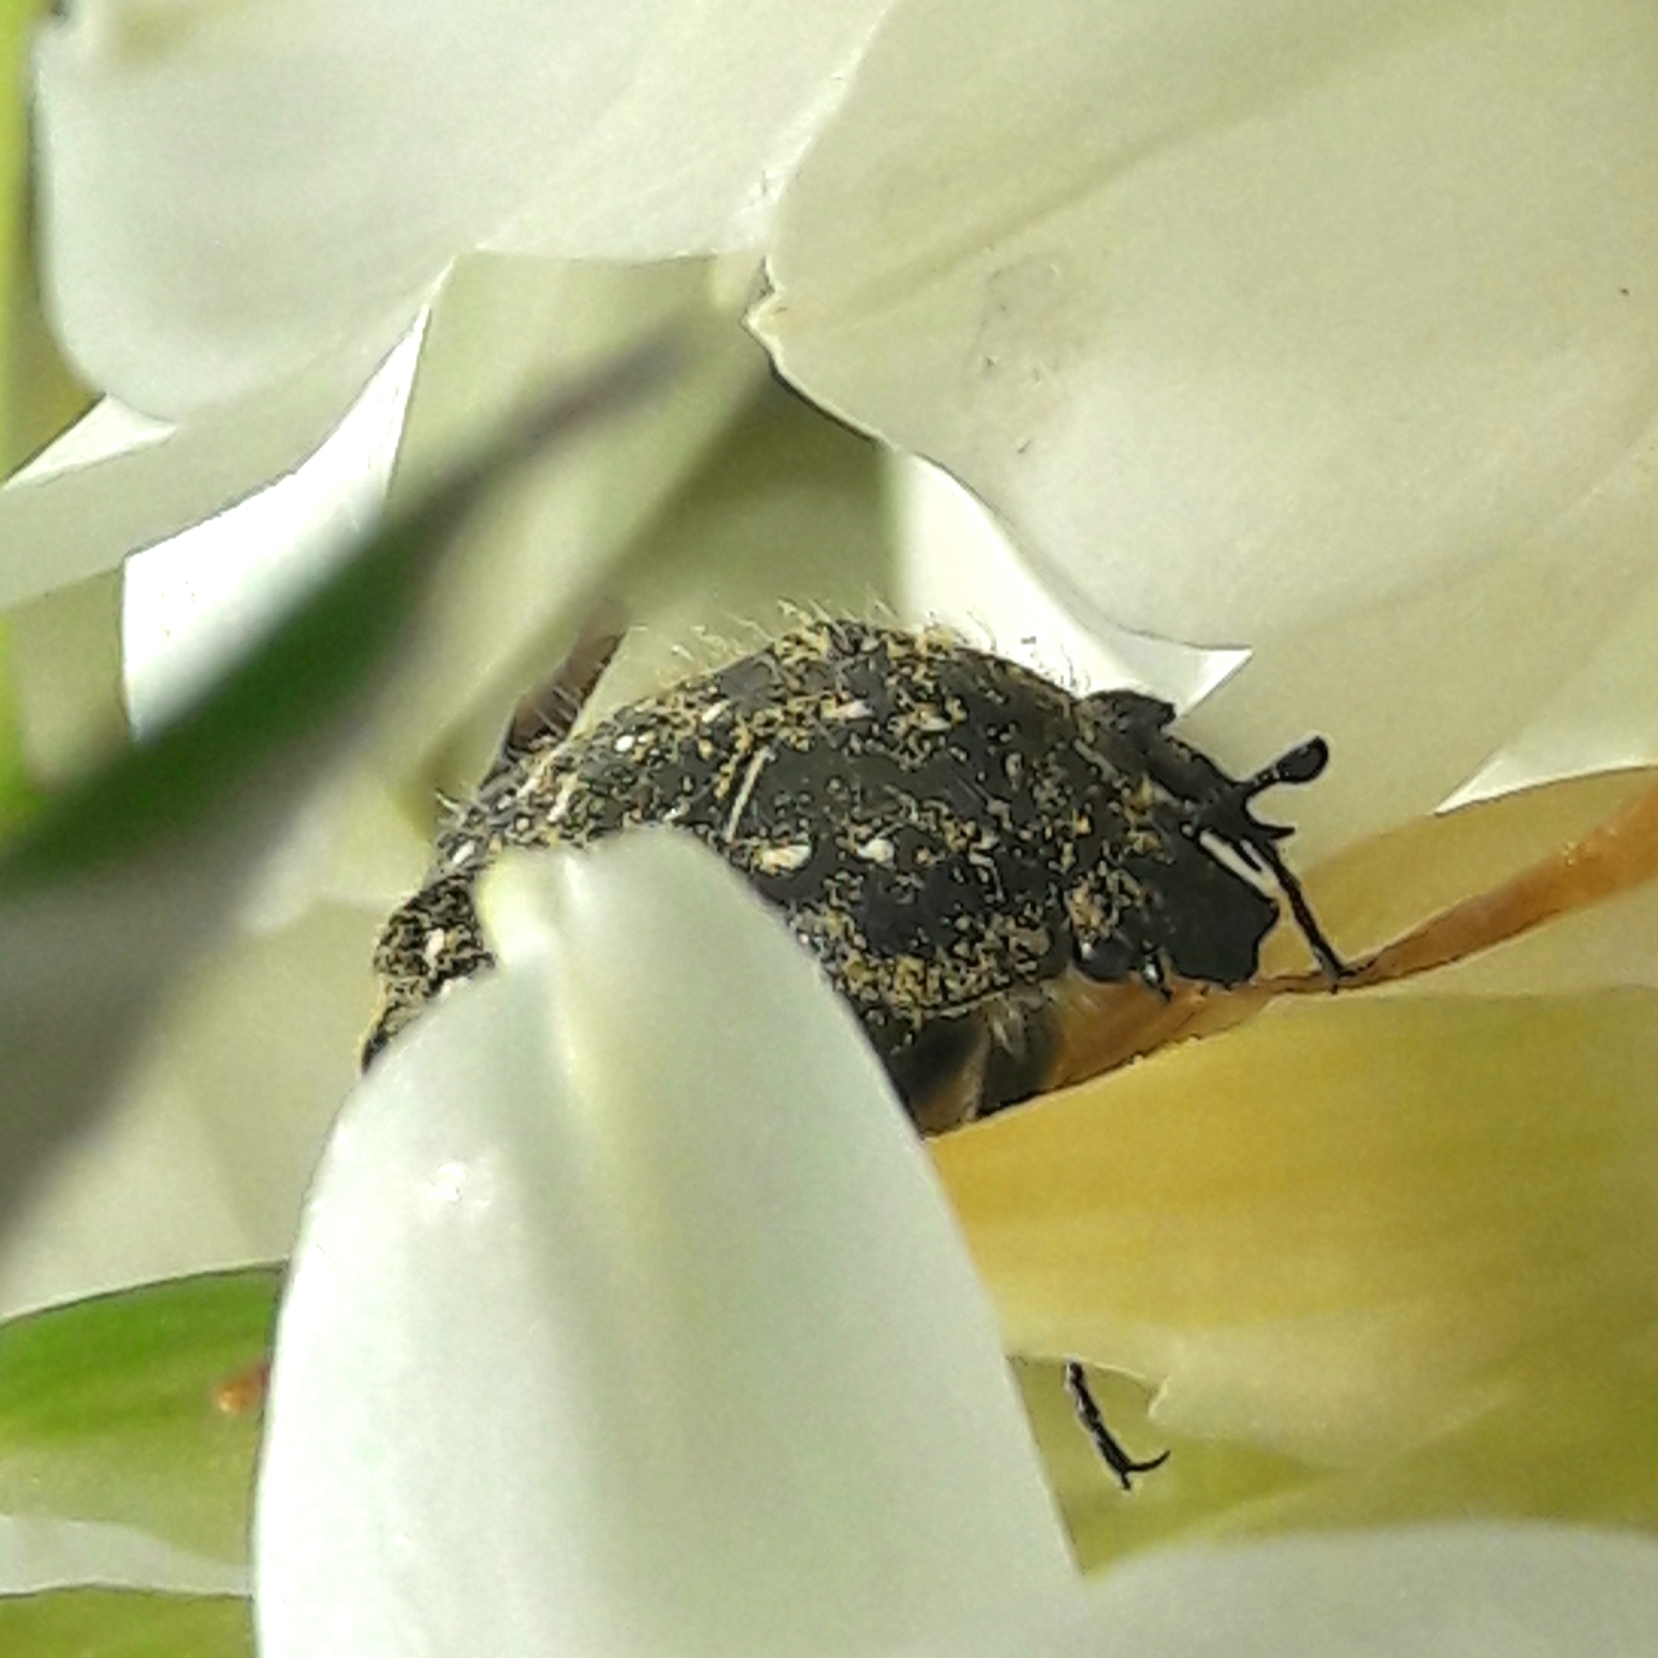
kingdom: Animalia
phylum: Arthropoda
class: Insecta
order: Coleoptera
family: Scarabaeidae
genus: Oxythyrea
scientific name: Oxythyrea funesta
